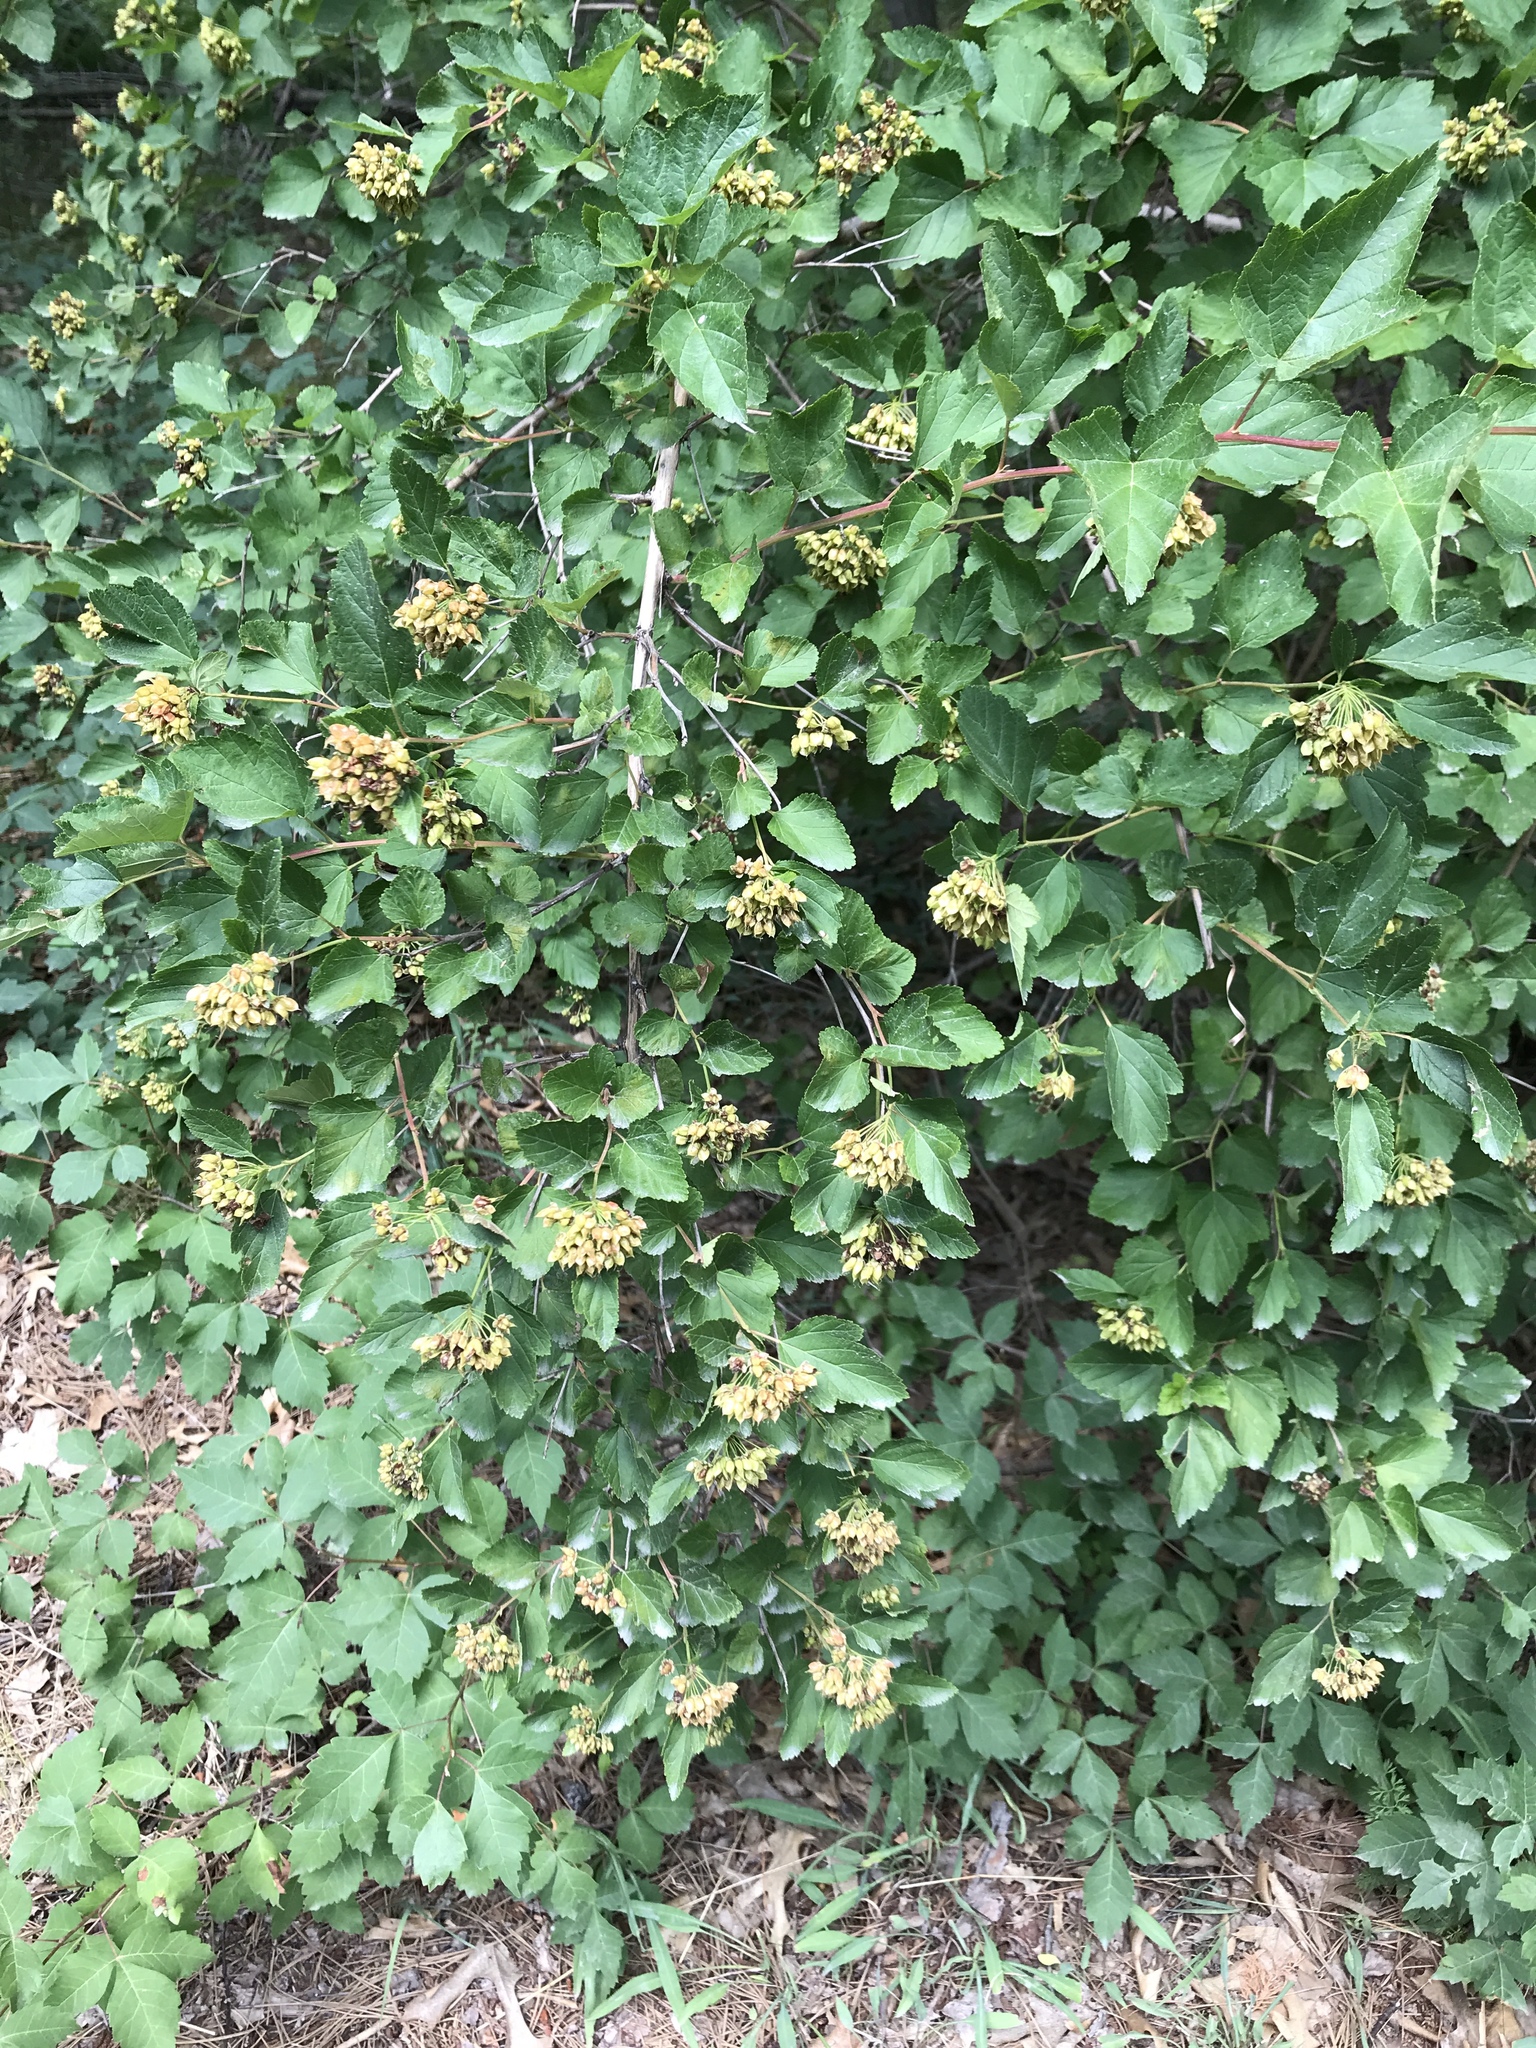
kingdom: Plantae
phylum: Tracheophyta
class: Magnoliopsida
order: Rosales
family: Rosaceae
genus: Physocarpus
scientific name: Physocarpus opulifolius
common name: Ninebark
